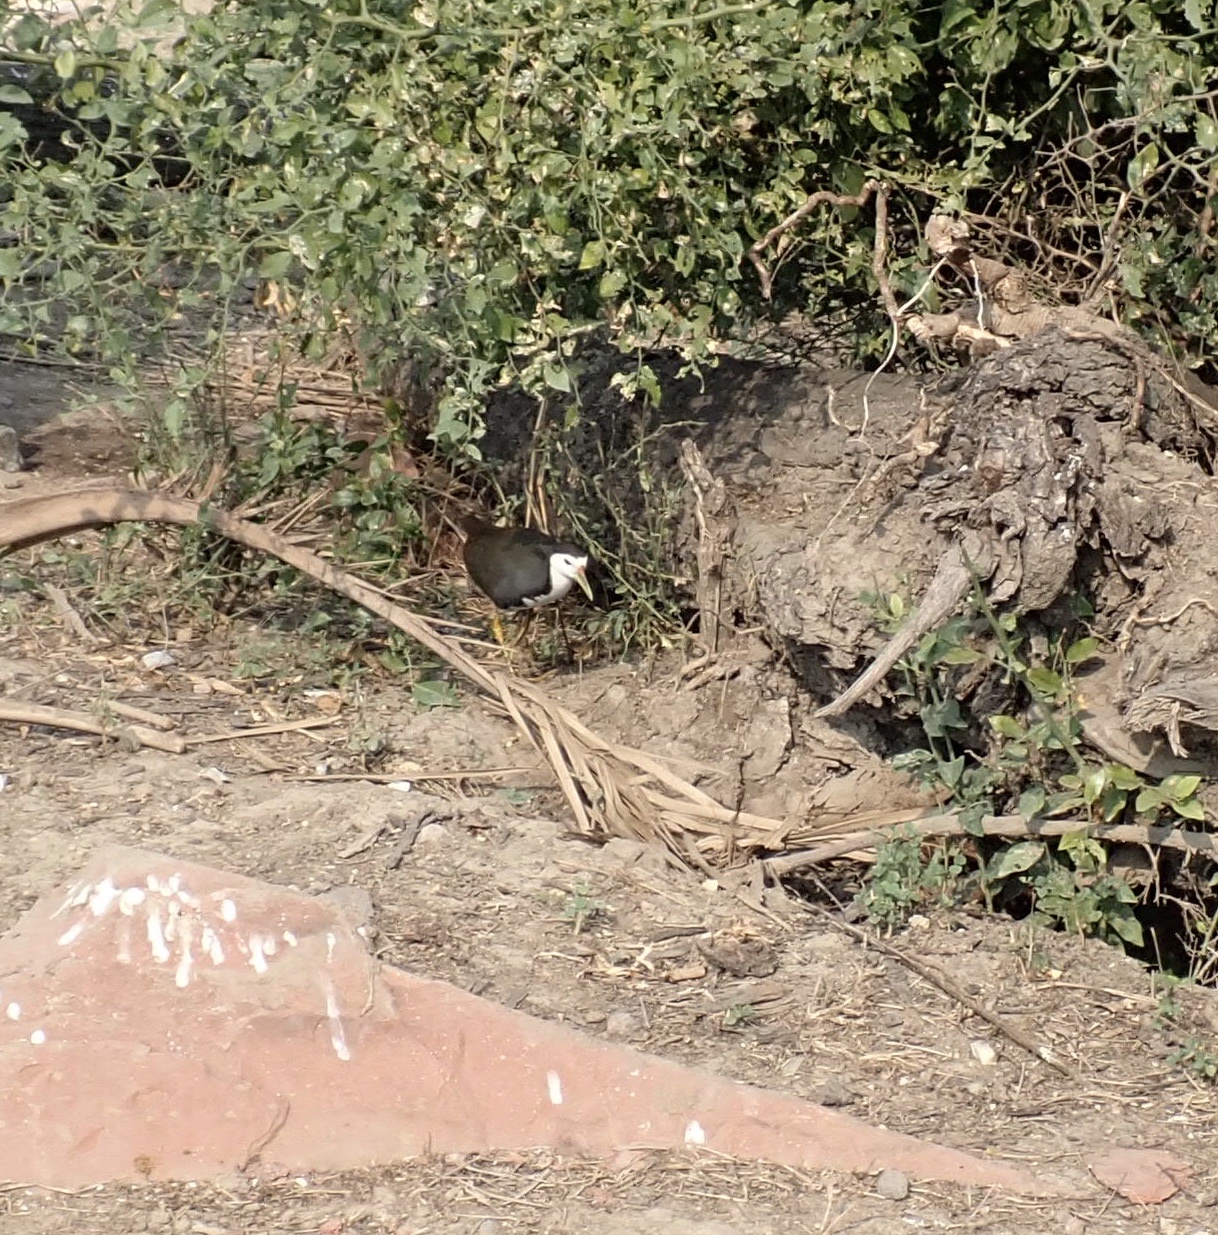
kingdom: Animalia
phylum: Chordata
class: Aves
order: Gruiformes
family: Rallidae
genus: Amaurornis
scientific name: Amaurornis phoenicurus
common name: White-breasted waterhen
